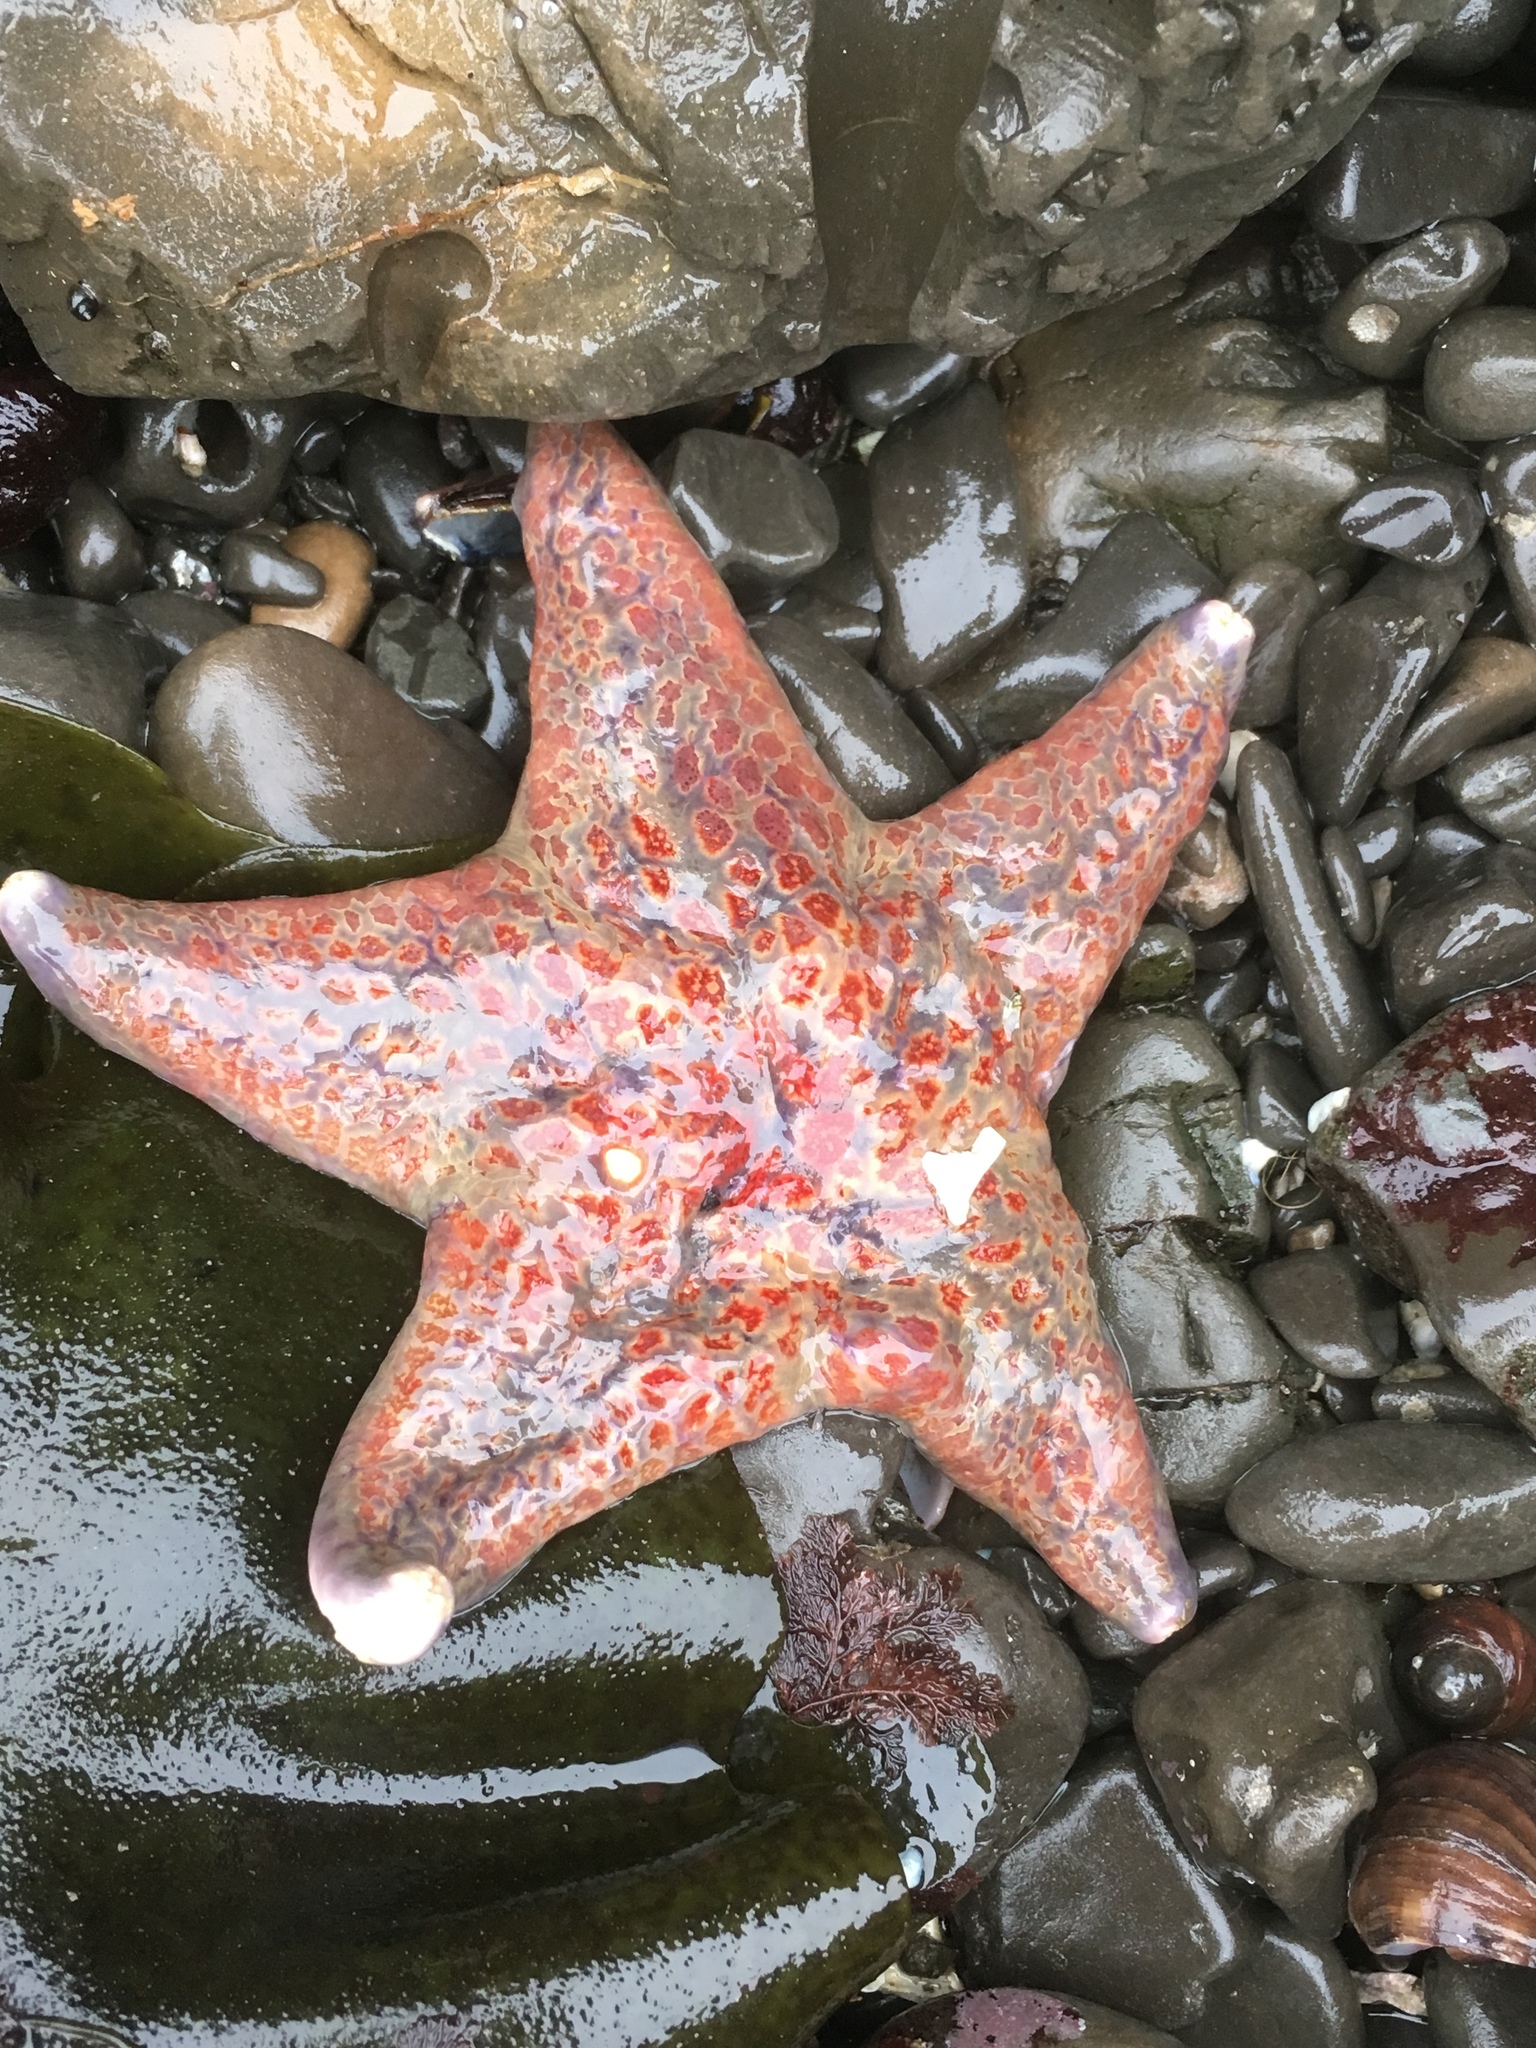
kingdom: Animalia
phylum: Echinodermata
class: Asteroidea
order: Valvatida
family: Asteropseidae
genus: Dermasterias
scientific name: Dermasterias imbricata
